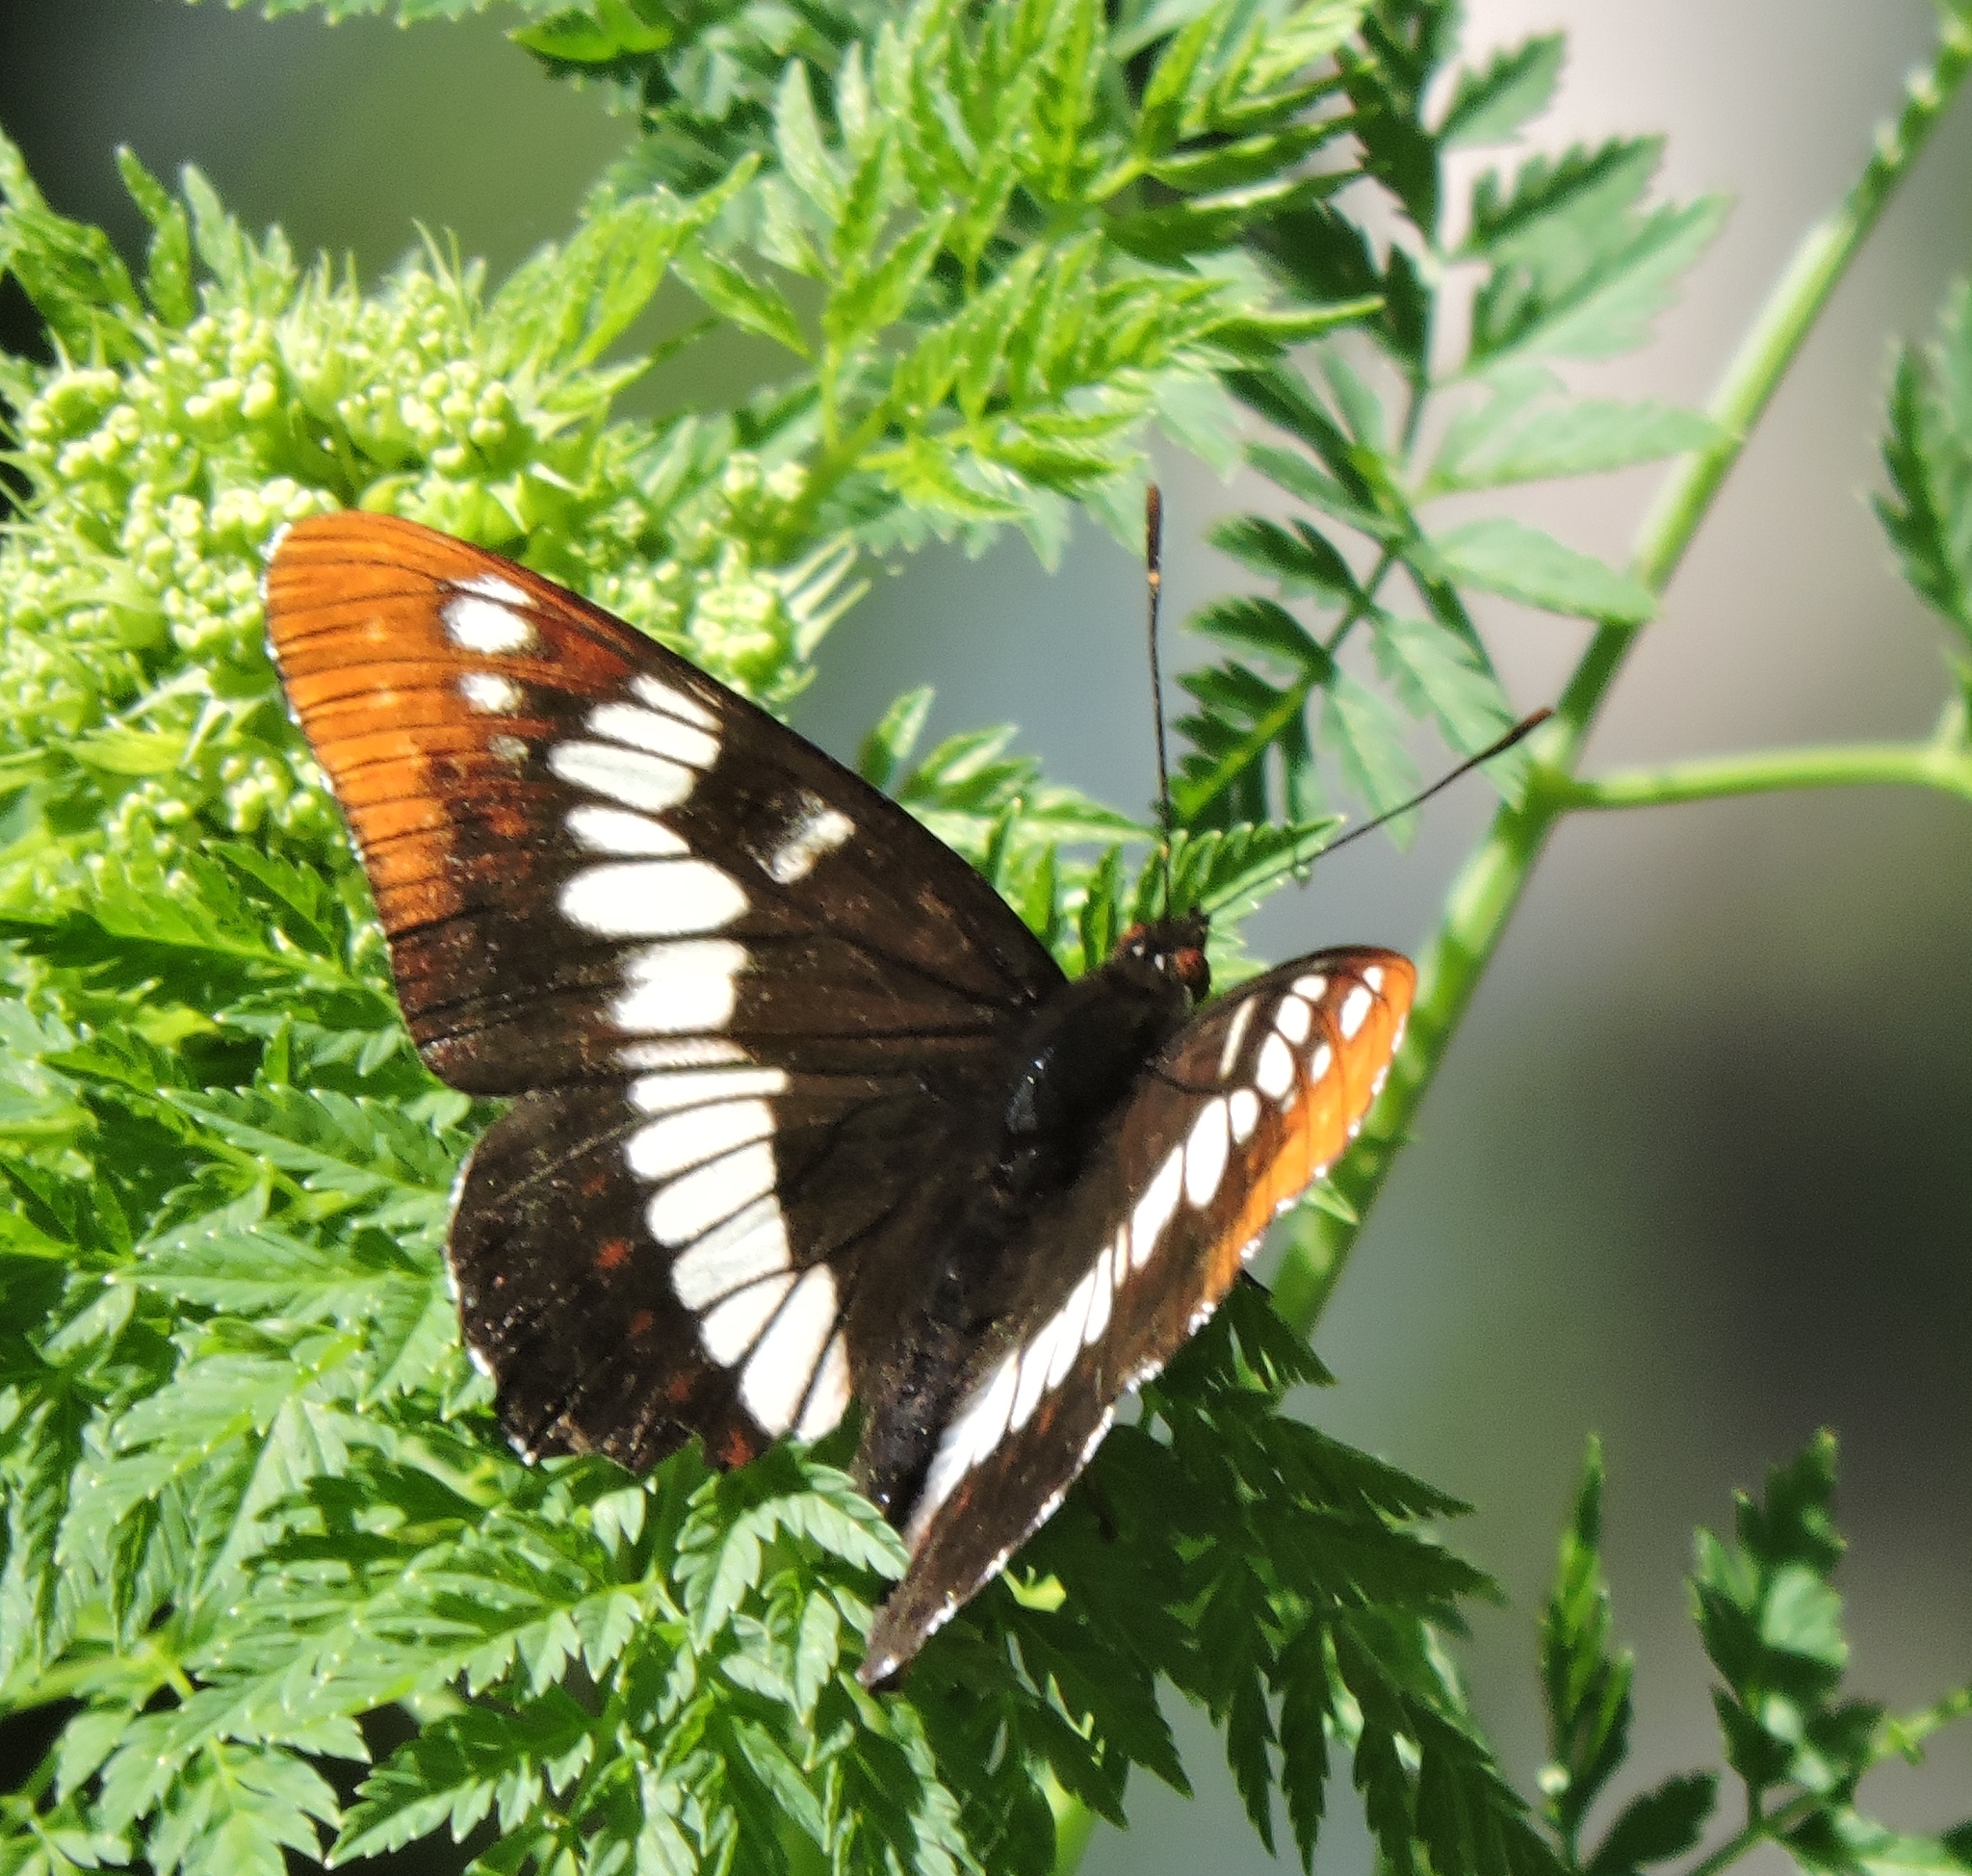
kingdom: Animalia
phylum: Arthropoda
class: Insecta
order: Lepidoptera
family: Nymphalidae
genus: Limenitis
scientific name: Limenitis lorquini
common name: Lorquin's admiral
